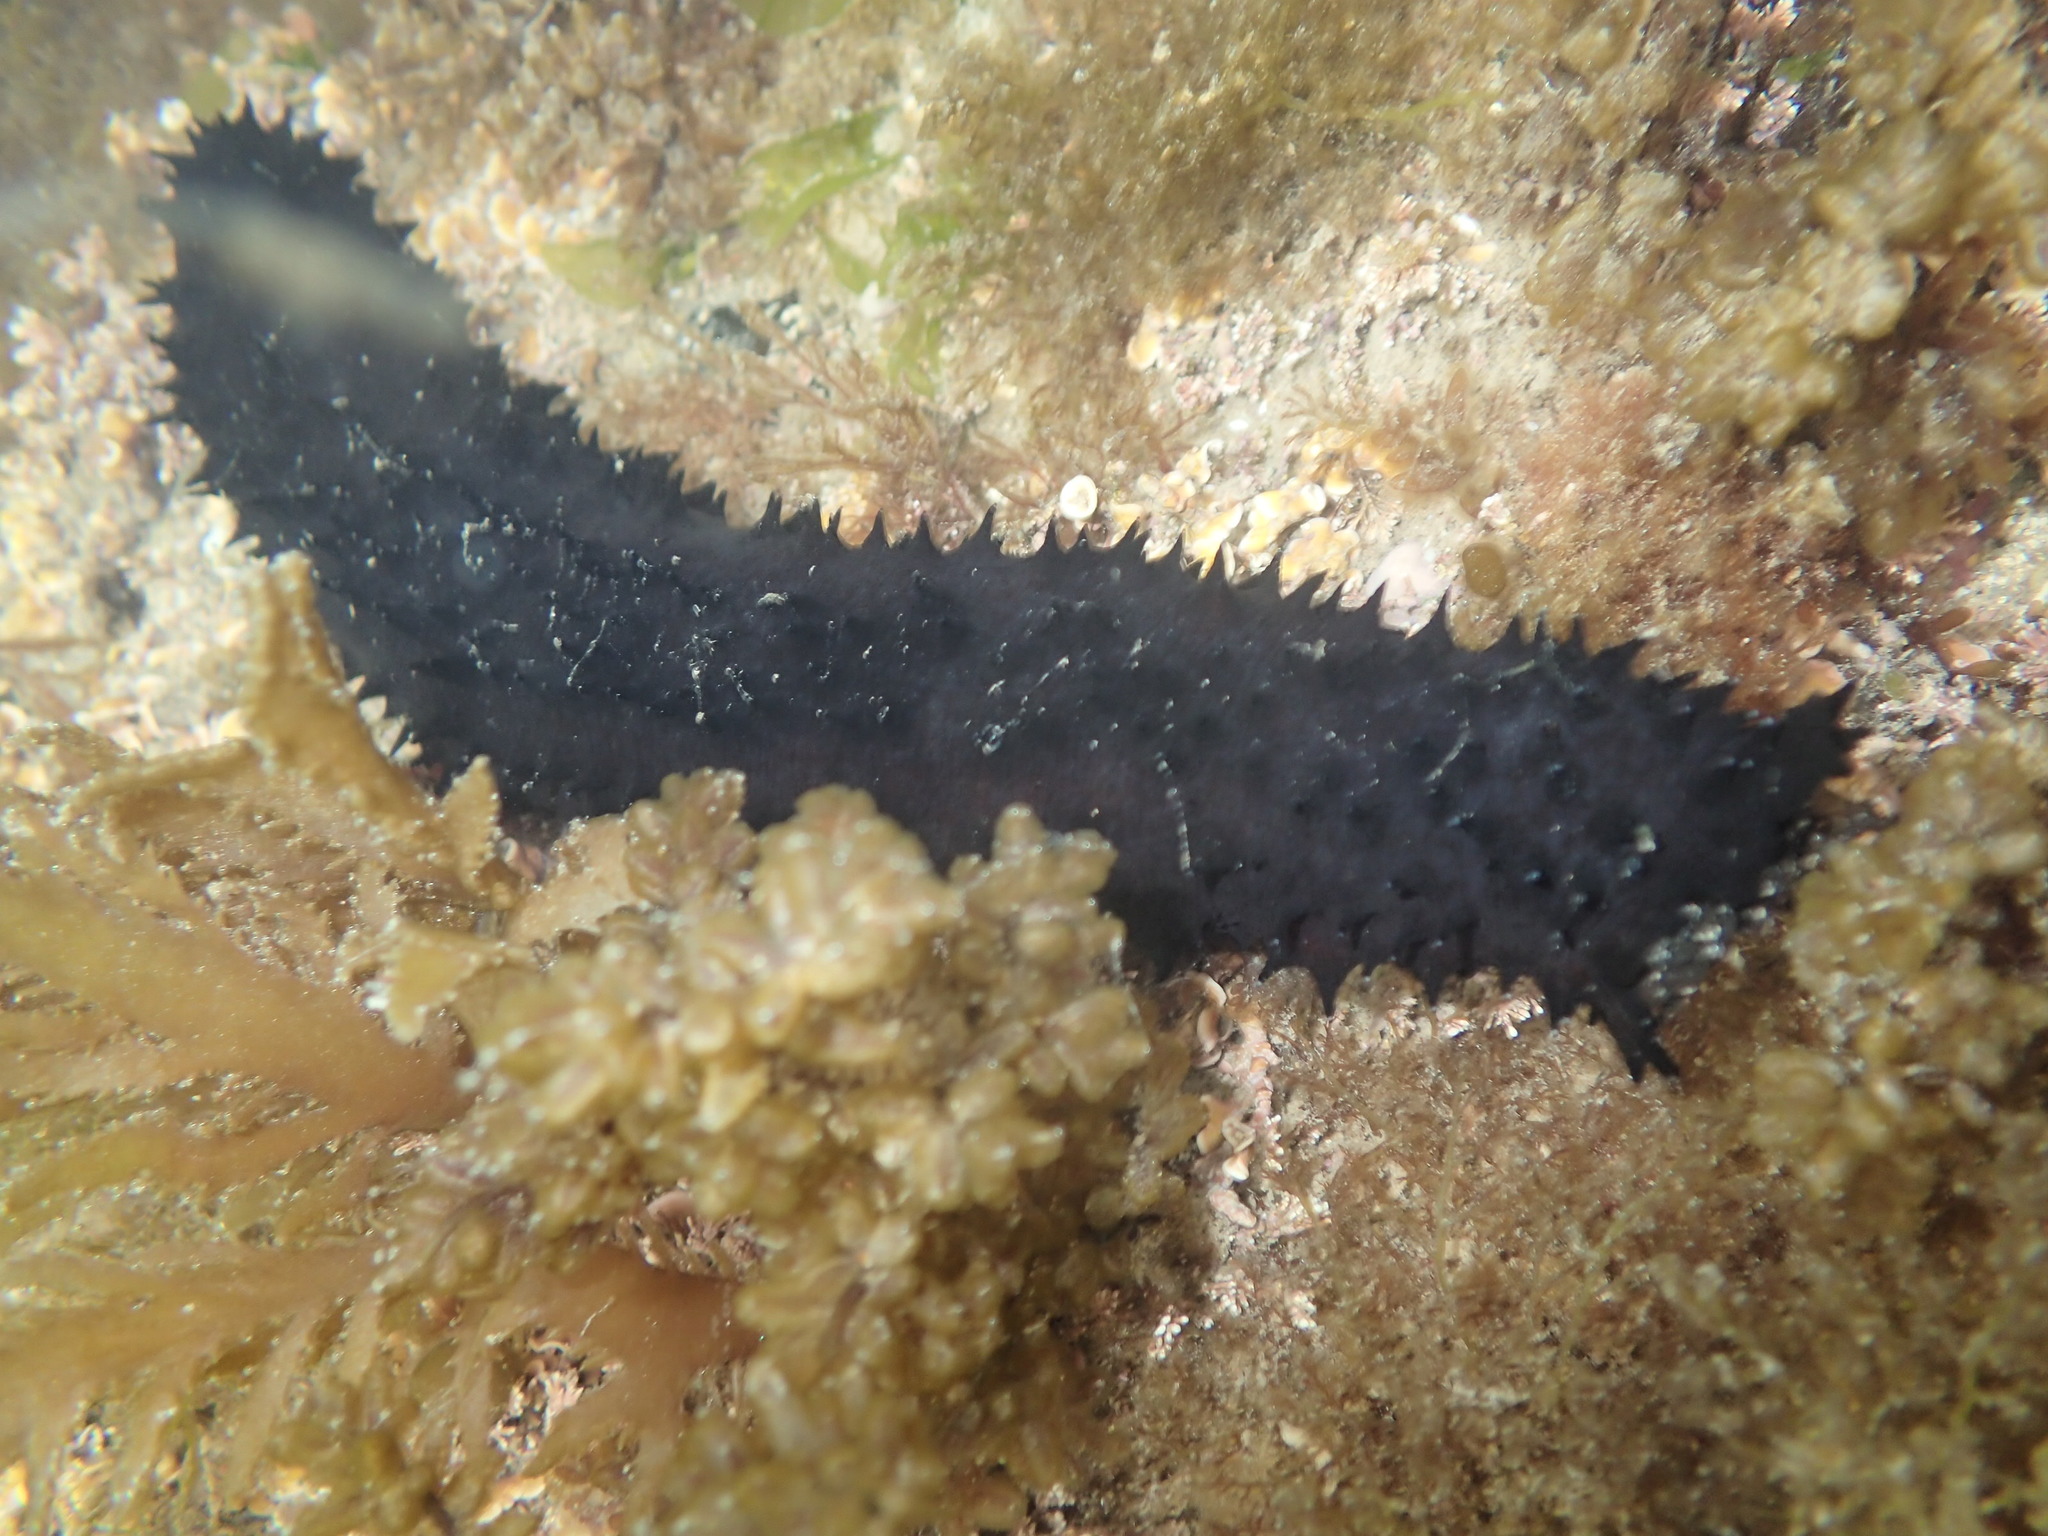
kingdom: Animalia
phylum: Echinodermata
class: Holothuroidea
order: Holothuriida
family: Holothuriidae
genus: Holothuria
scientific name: Holothuria forskali
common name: Black sea cucumber
